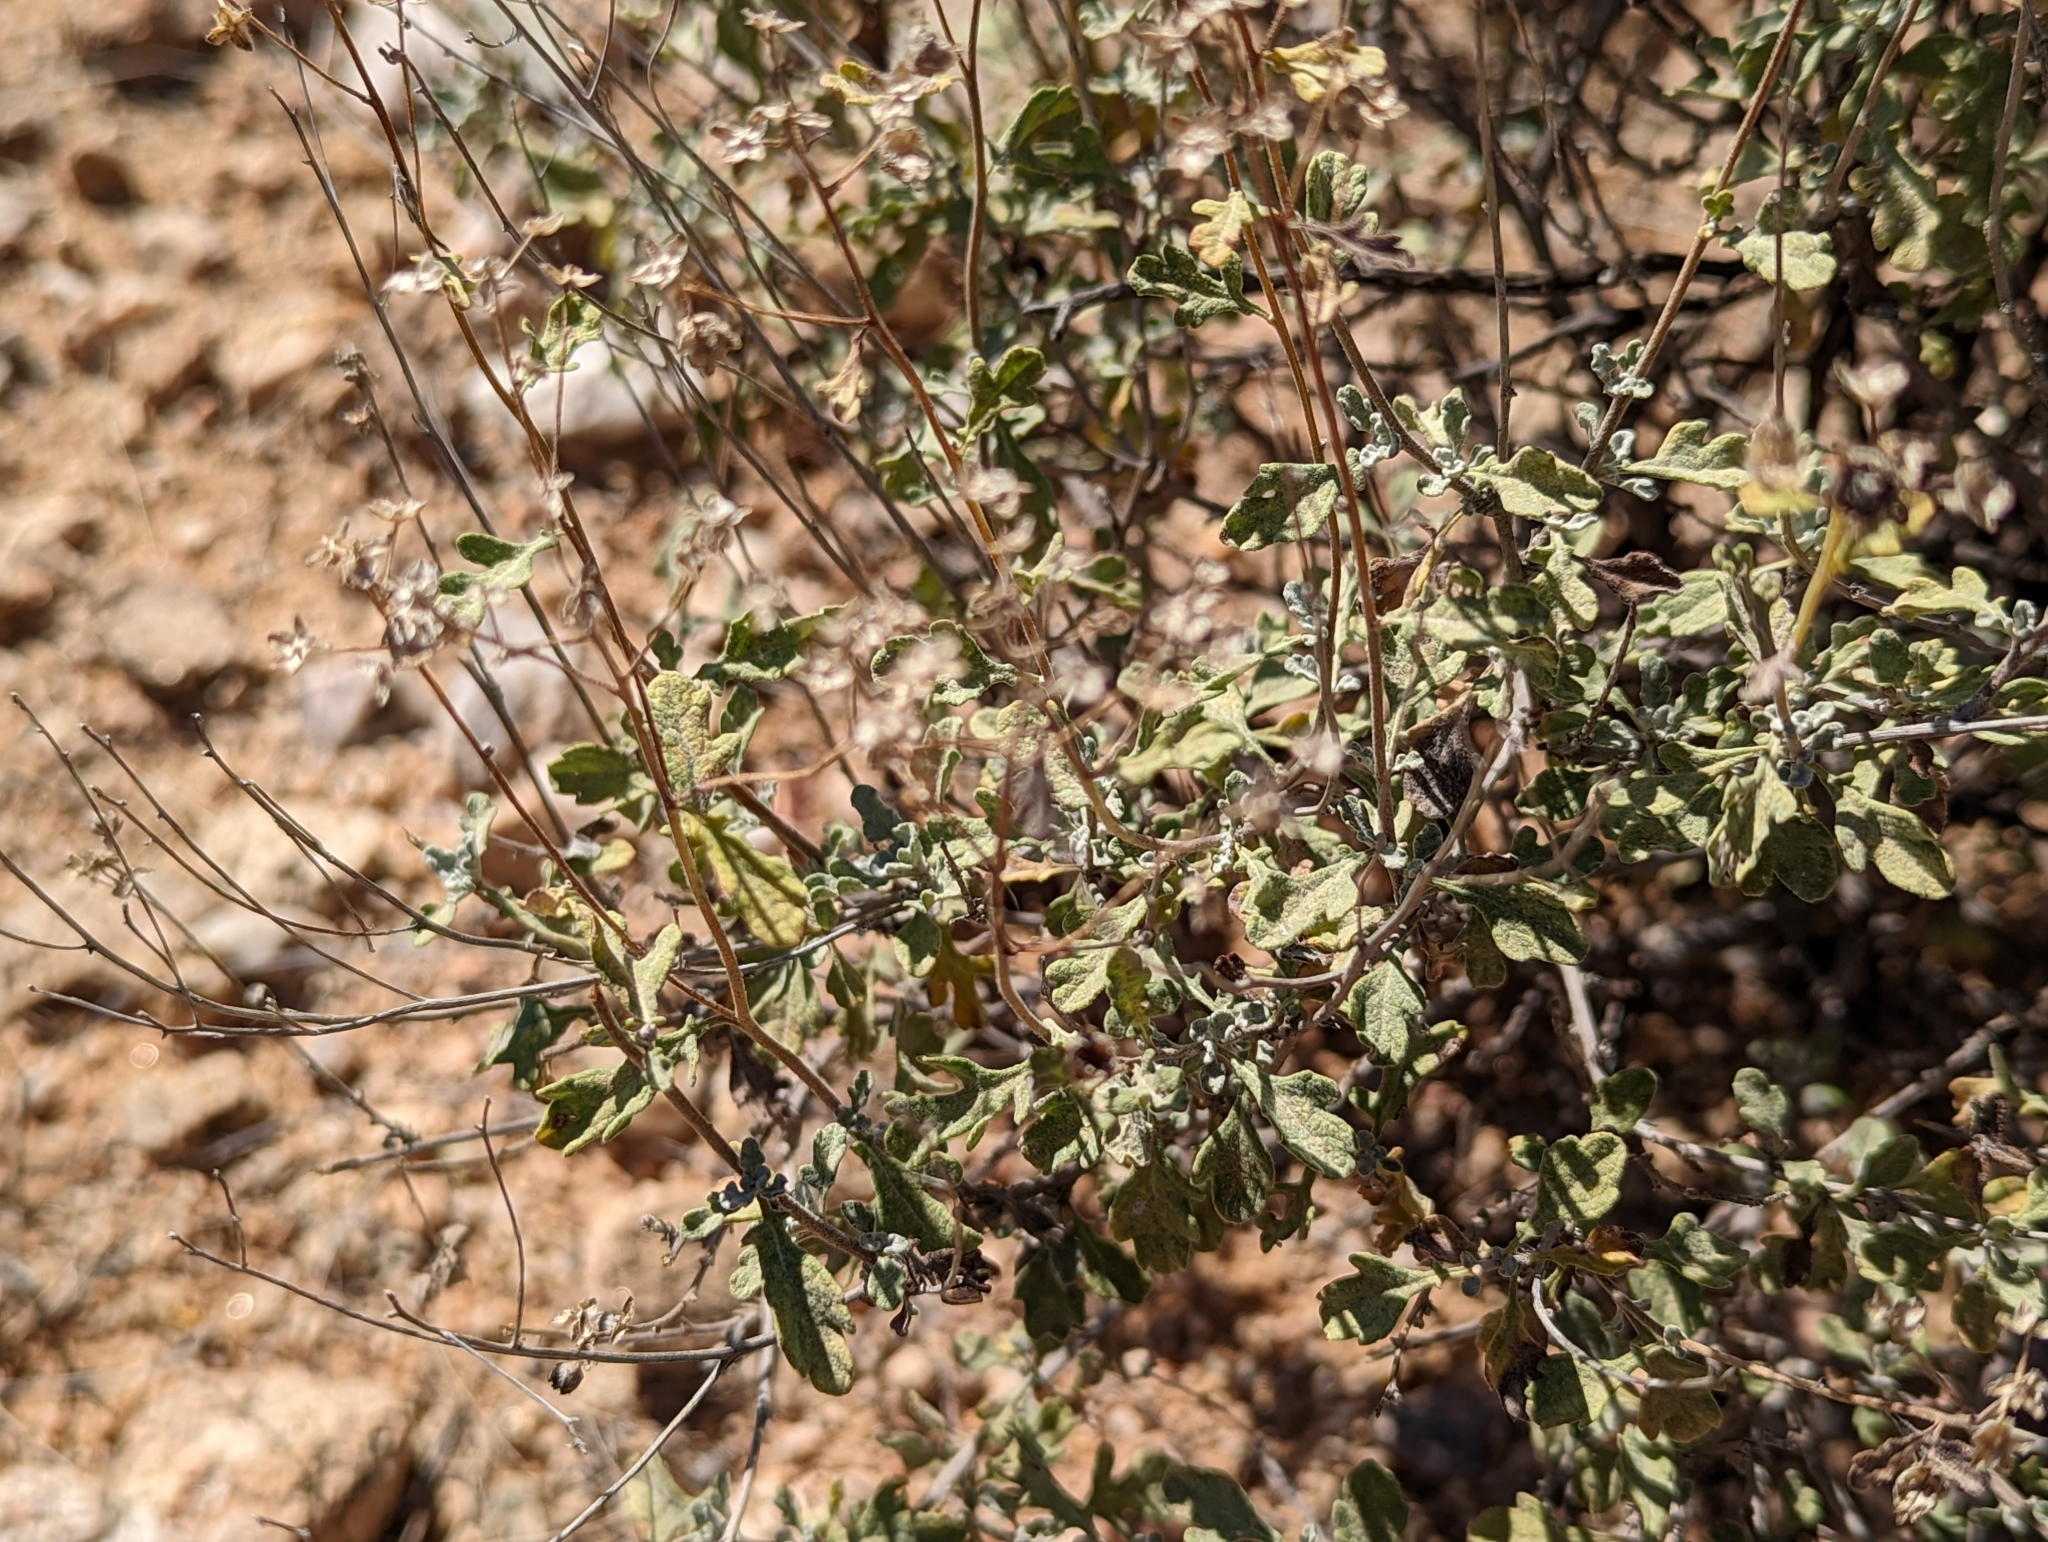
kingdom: Plantae
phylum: Tracheophyta
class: Magnoliopsida
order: Asterales
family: Asteraceae
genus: Parthenium
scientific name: Parthenium incanum
